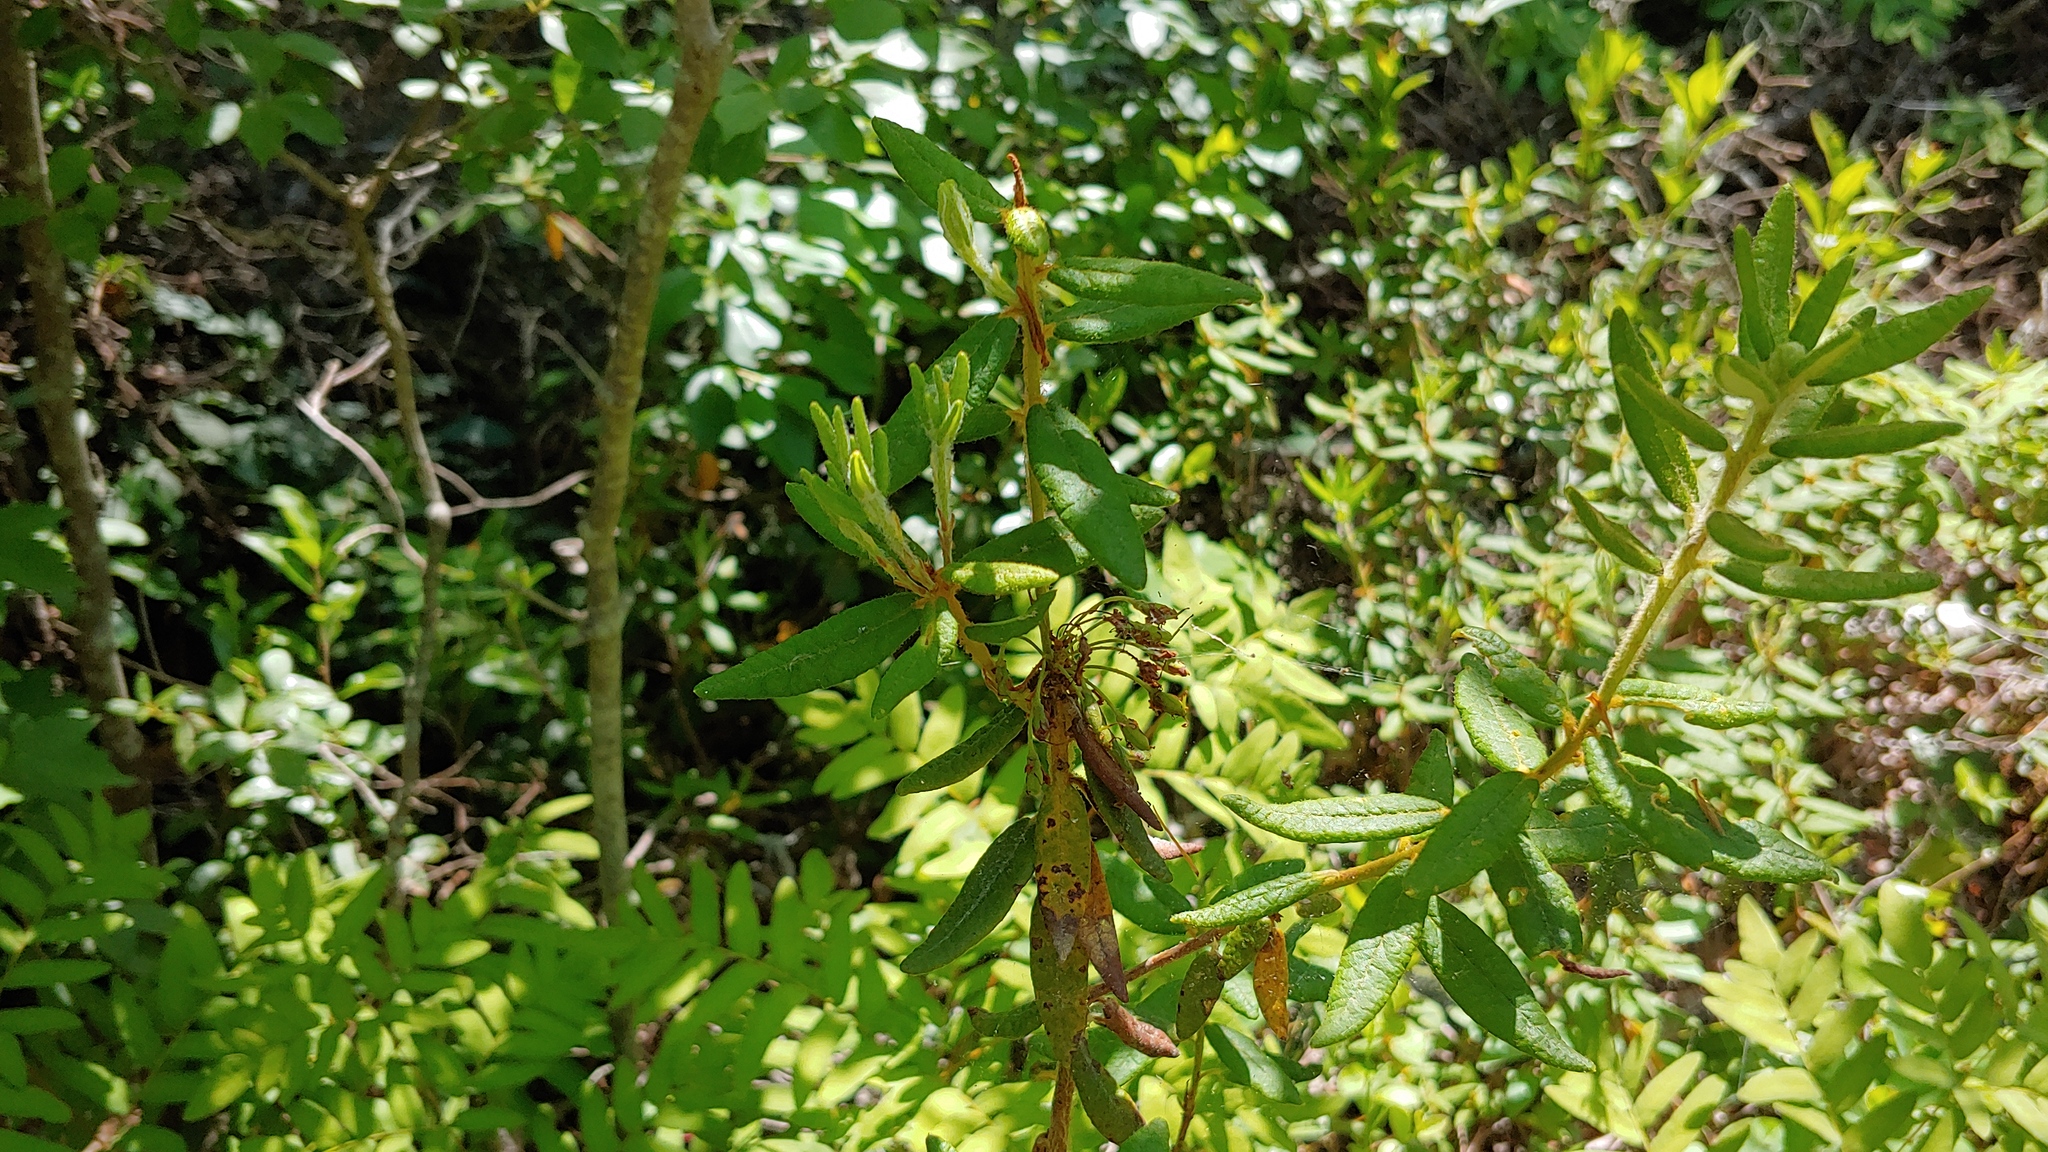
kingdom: Plantae
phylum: Tracheophyta
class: Magnoliopsida
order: Ericales
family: Ericaceae
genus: Rhododendron
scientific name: Rhododendron groenlandicum
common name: Bog labrador tea
